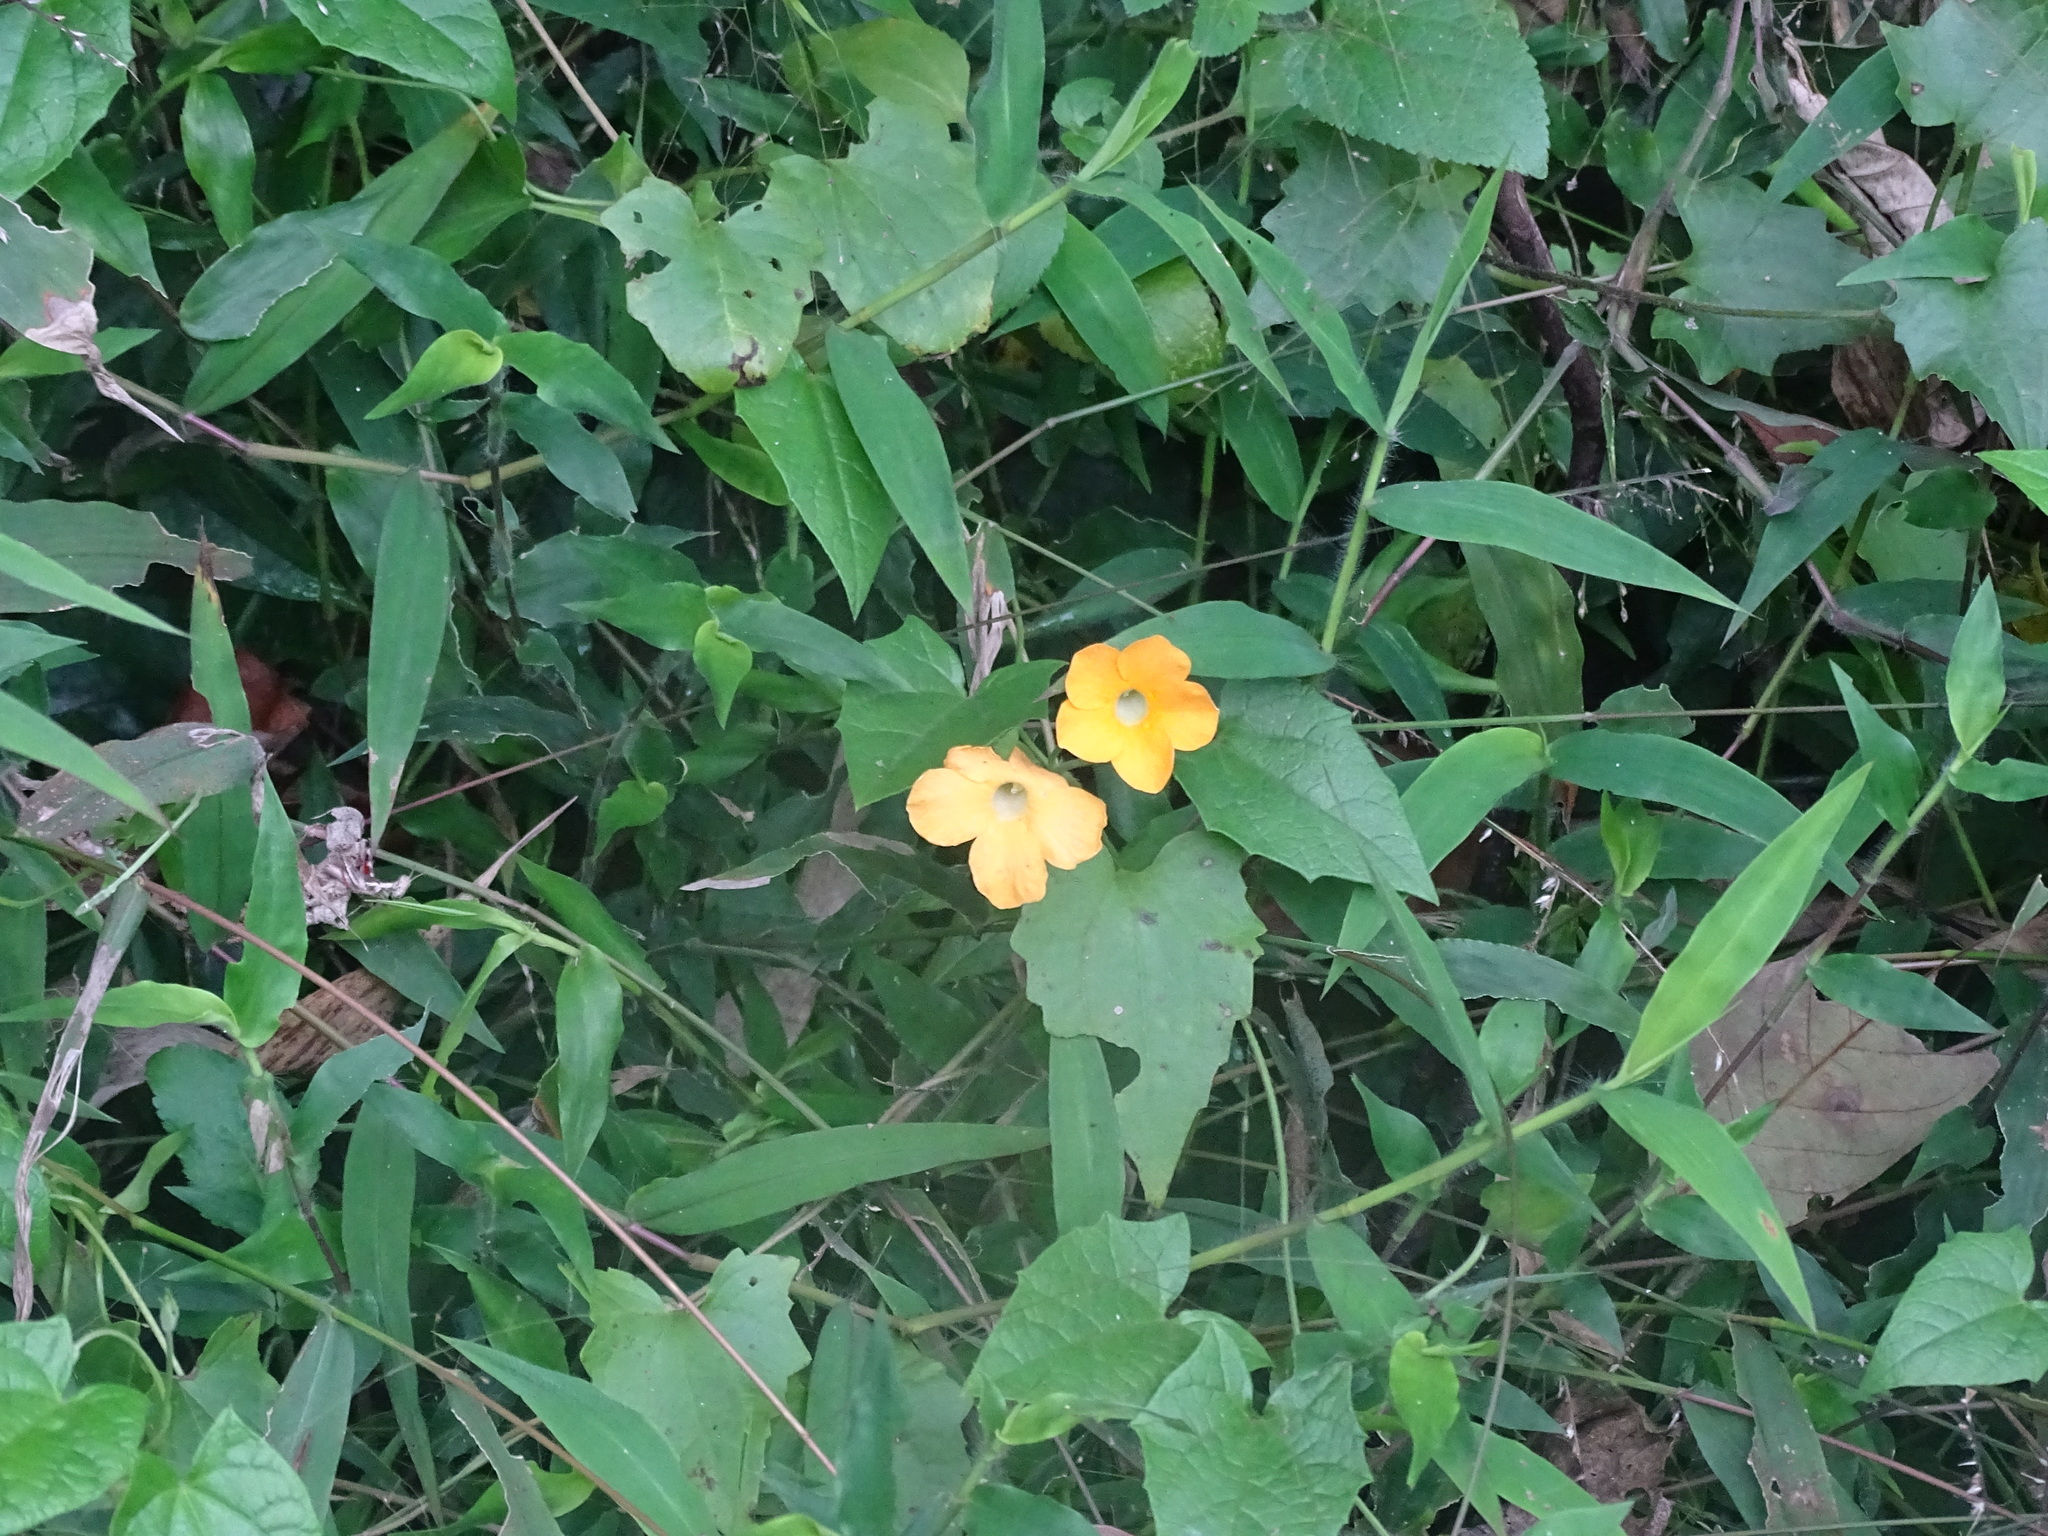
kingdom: Plantae
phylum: Tracheophyta
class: Magnoliopsida
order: Lamiales
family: Acanthaceae
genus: Thunbergia
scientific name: Thunbergia alata
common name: Blackeyed susan vine
